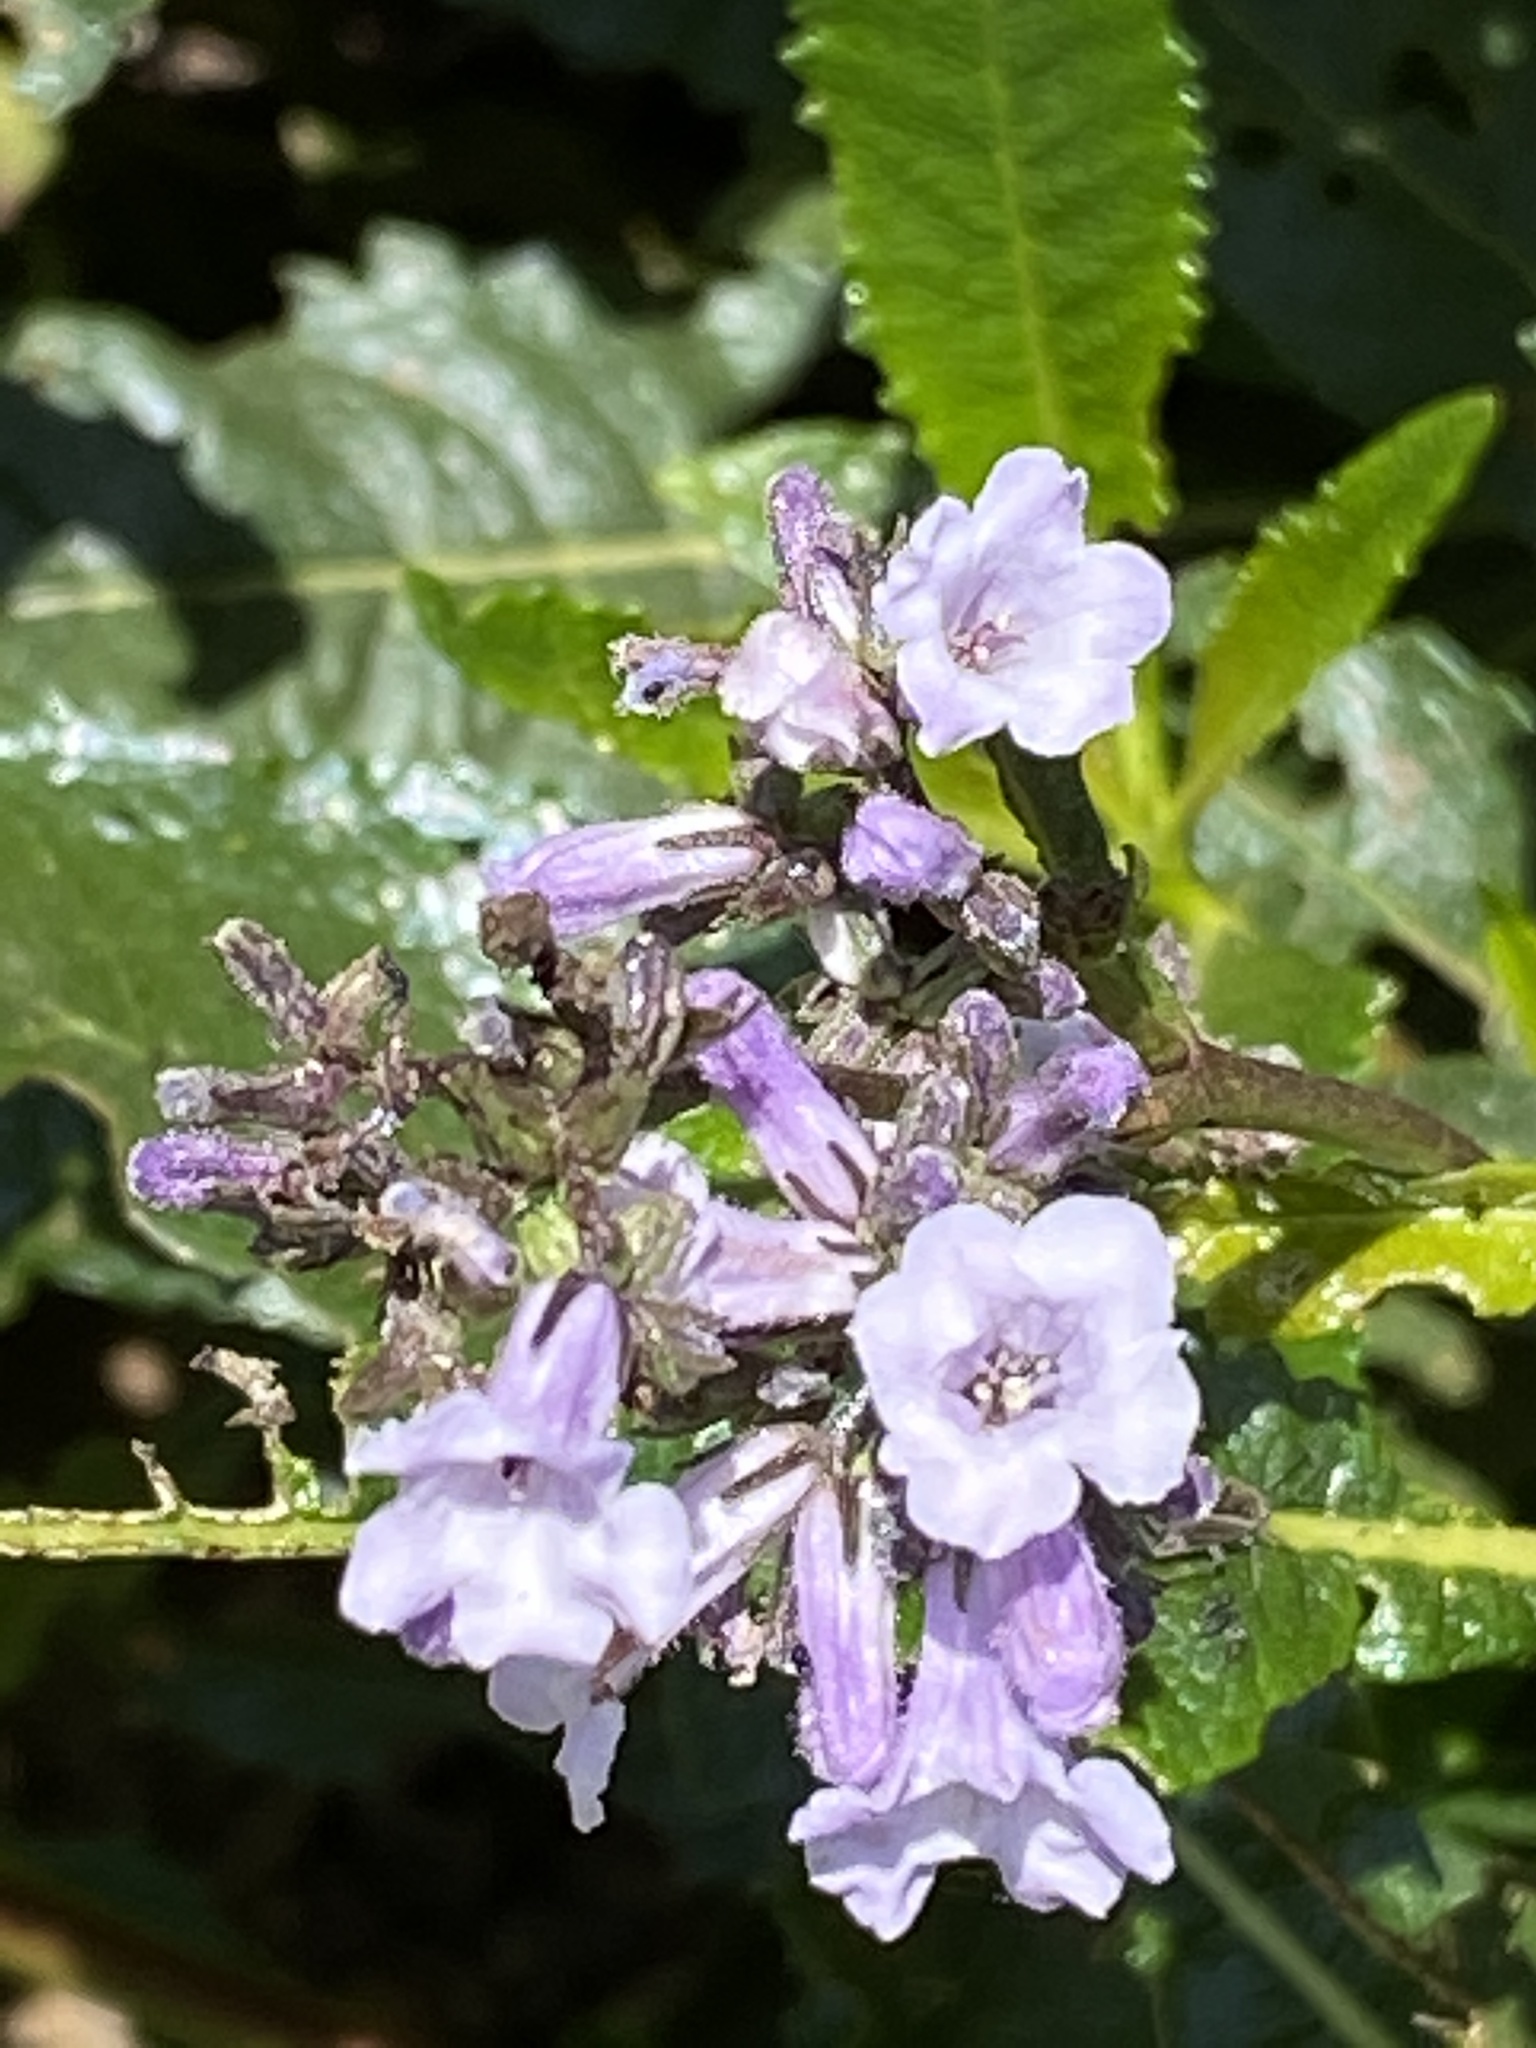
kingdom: Plantae
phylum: Tracheophyta
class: Magnoliopsida
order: Boraginales
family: Namaceae
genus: Eriodictyon
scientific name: Eriodictyon californicum
